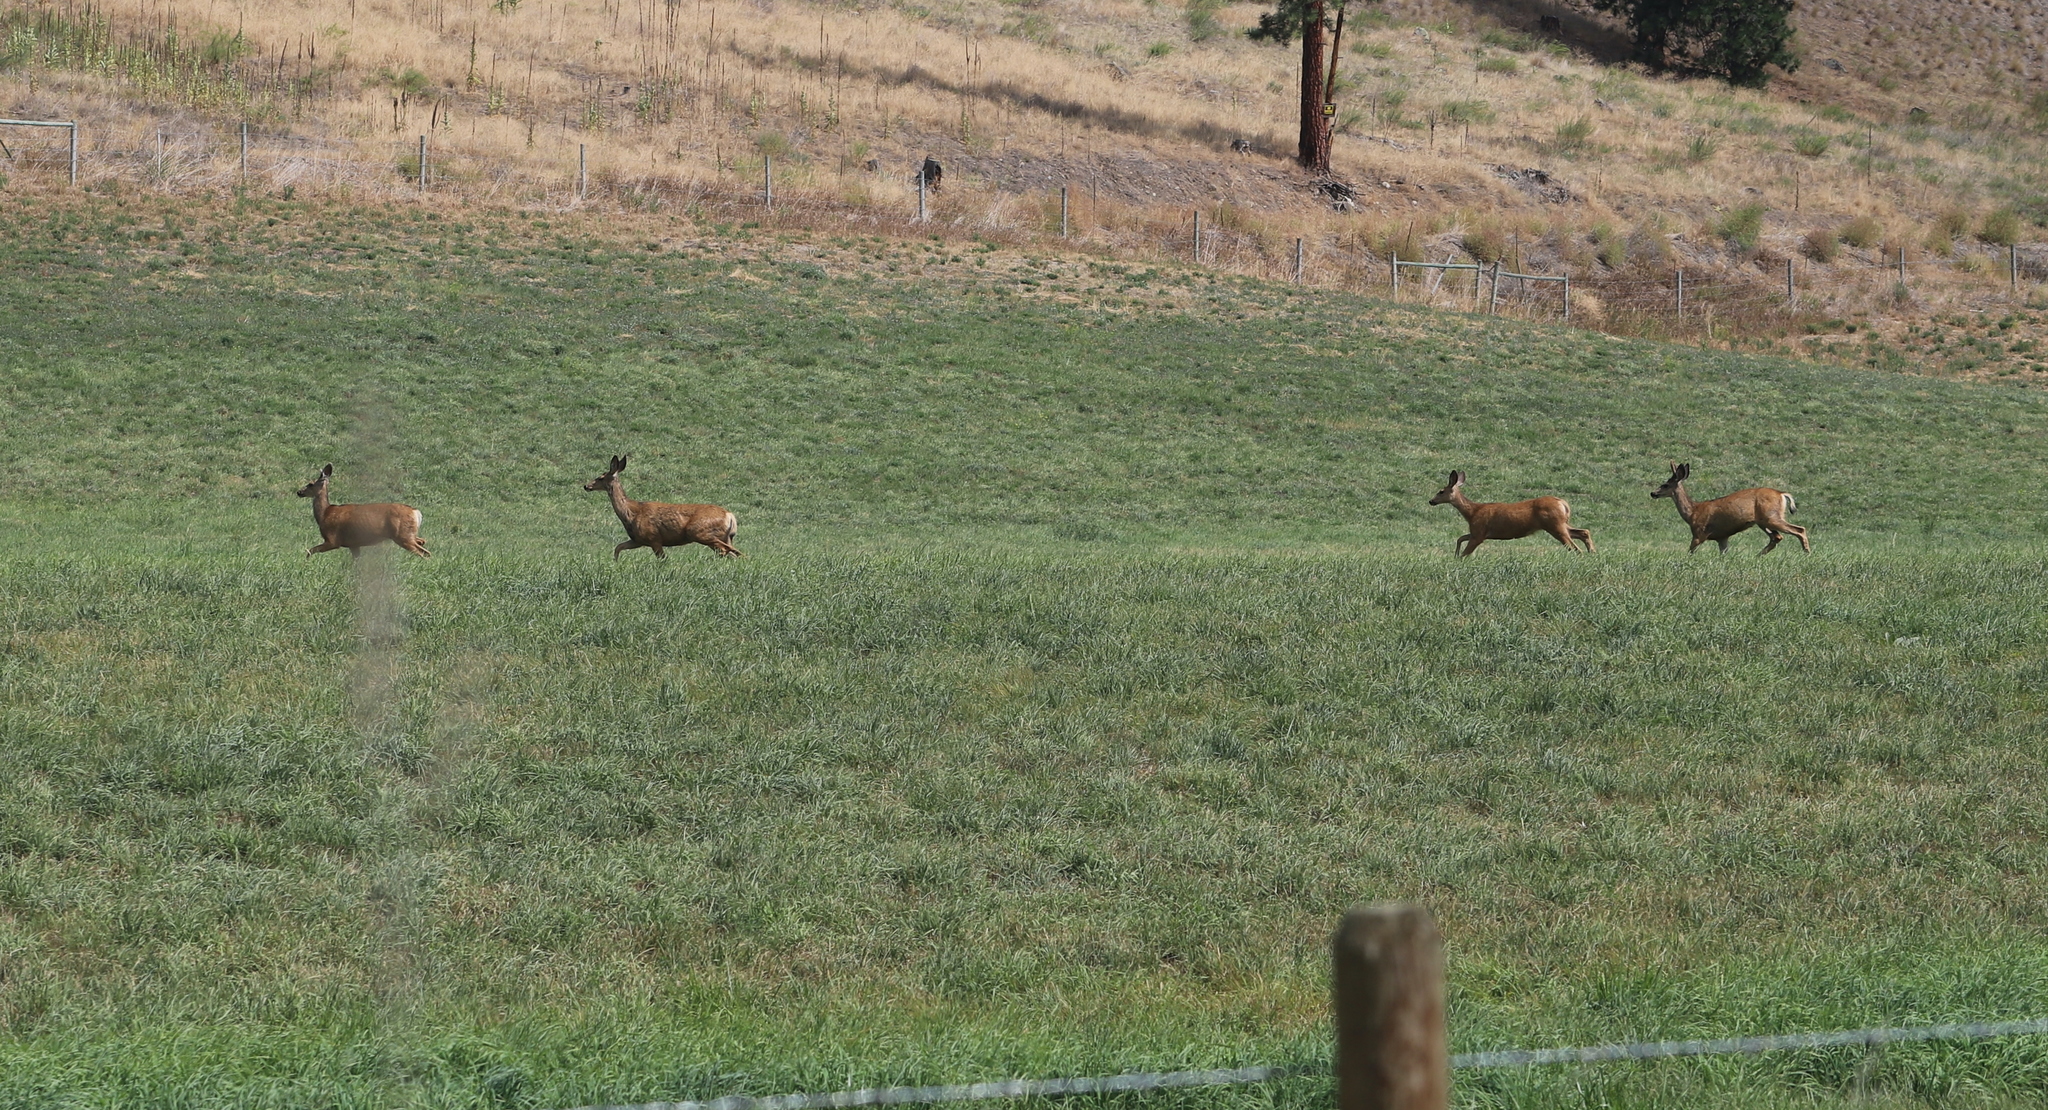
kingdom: Animalia
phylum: Chordata
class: Mammalia
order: Artiodactyla
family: Cervidae
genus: Odocoileus
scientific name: Odocoileus hemionus
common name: Mule deer
